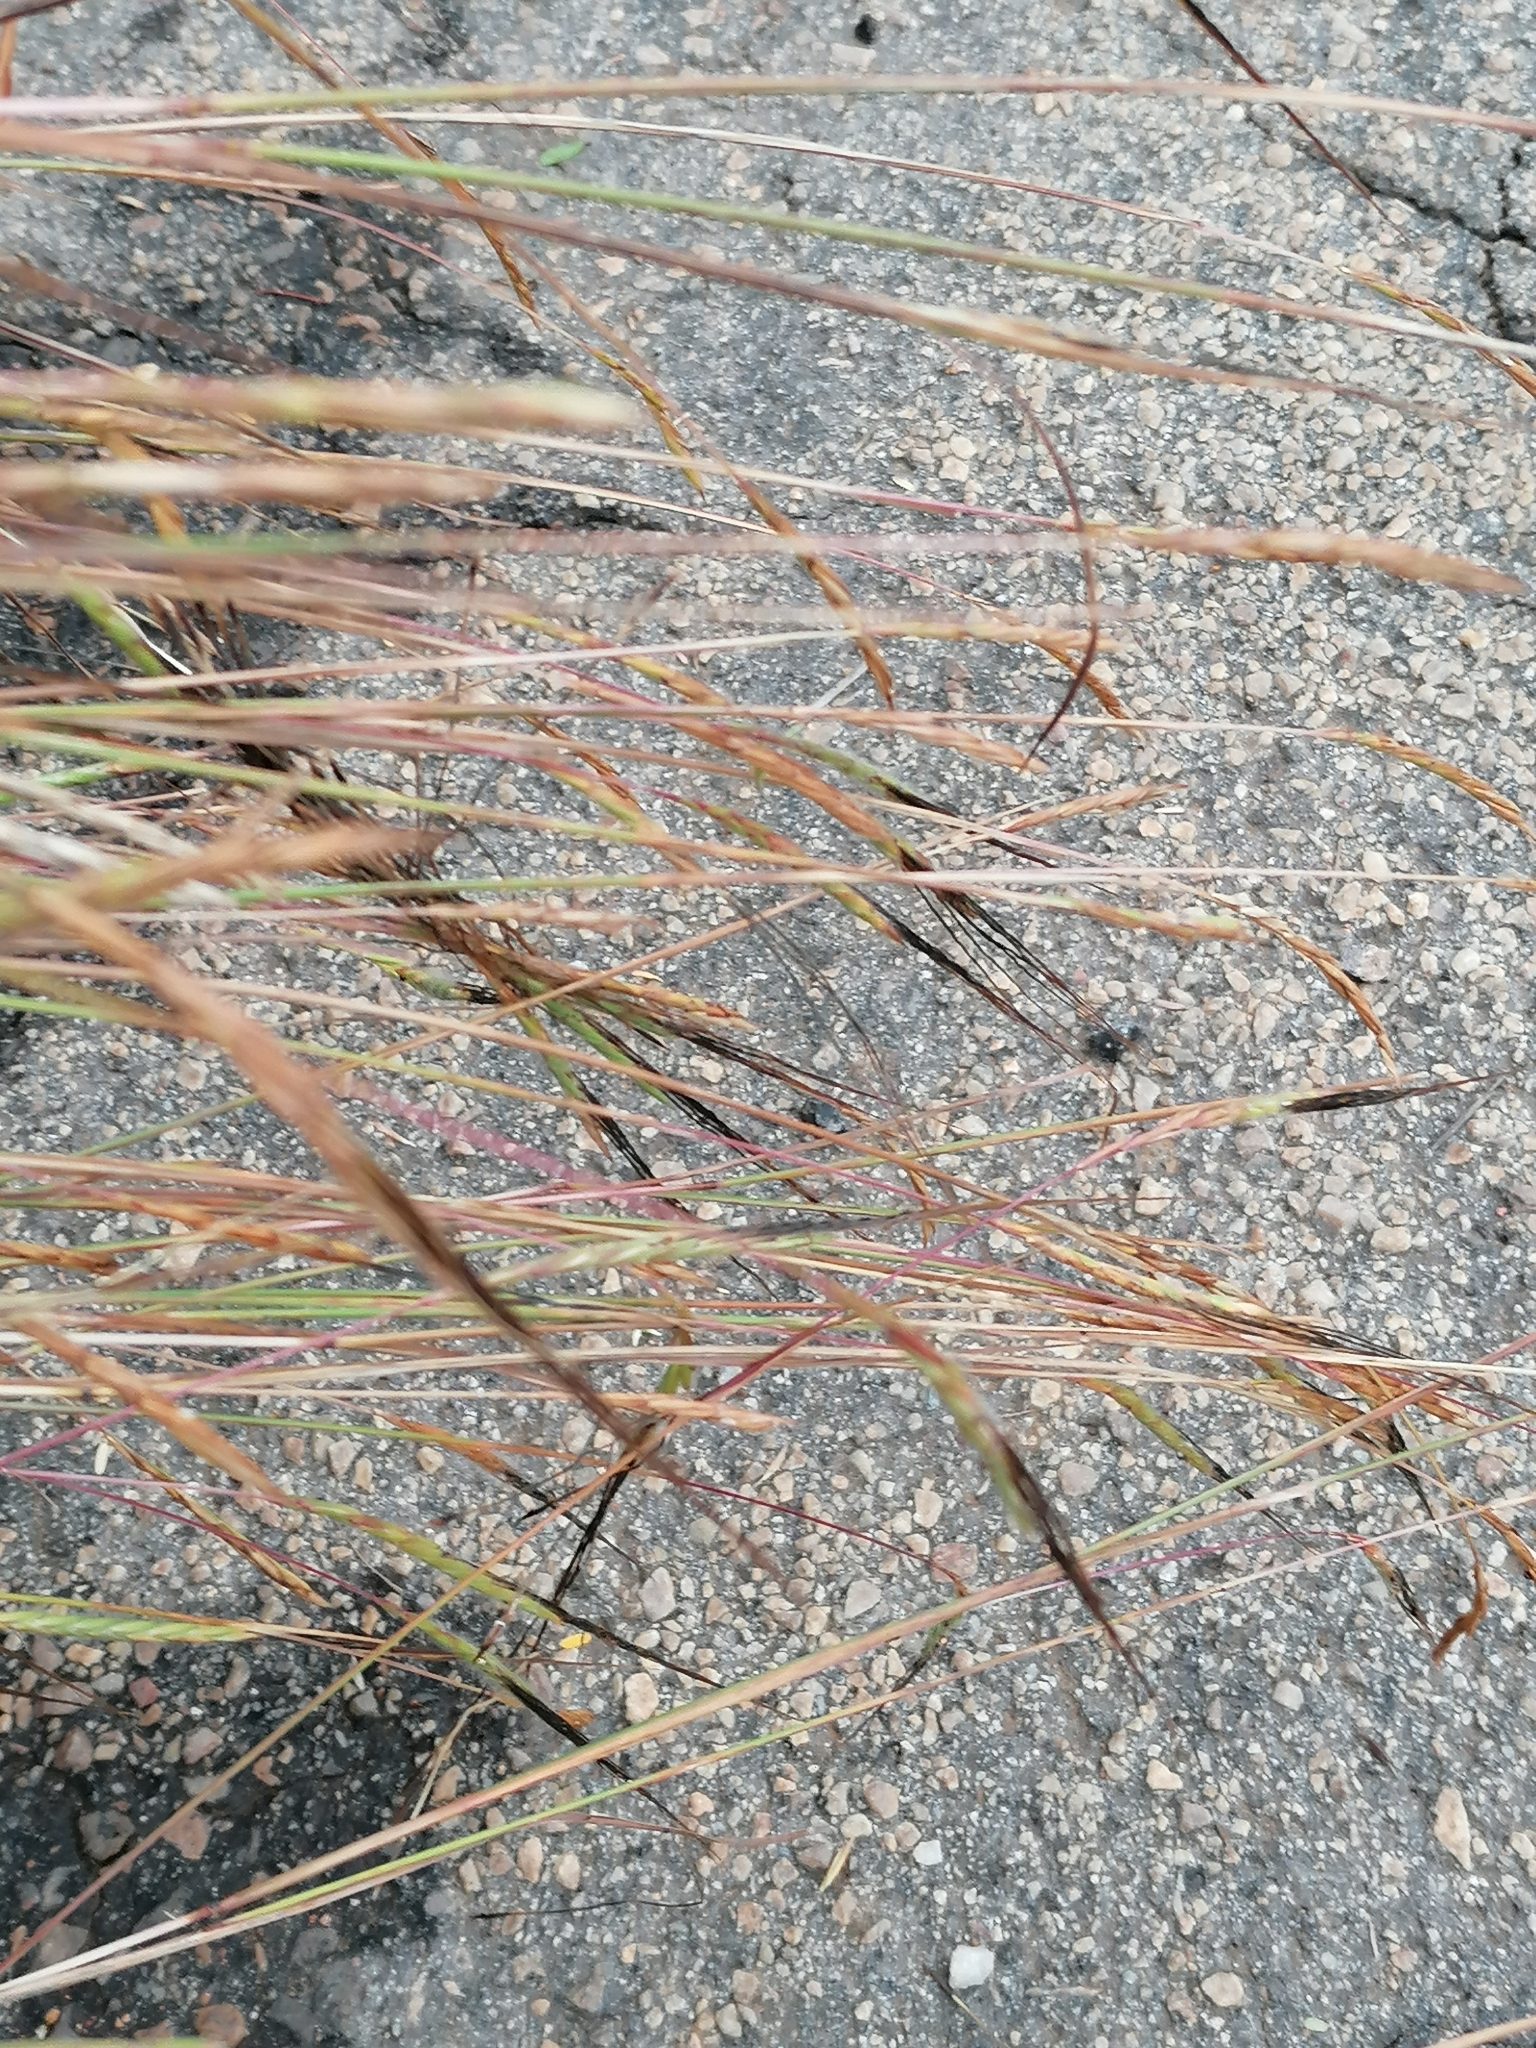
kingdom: Plantae
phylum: Tracheophyta
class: Liliopsida
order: Poales
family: Poaceae
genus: Heteropogon
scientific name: Heteropogon contortus
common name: Tanglehead
